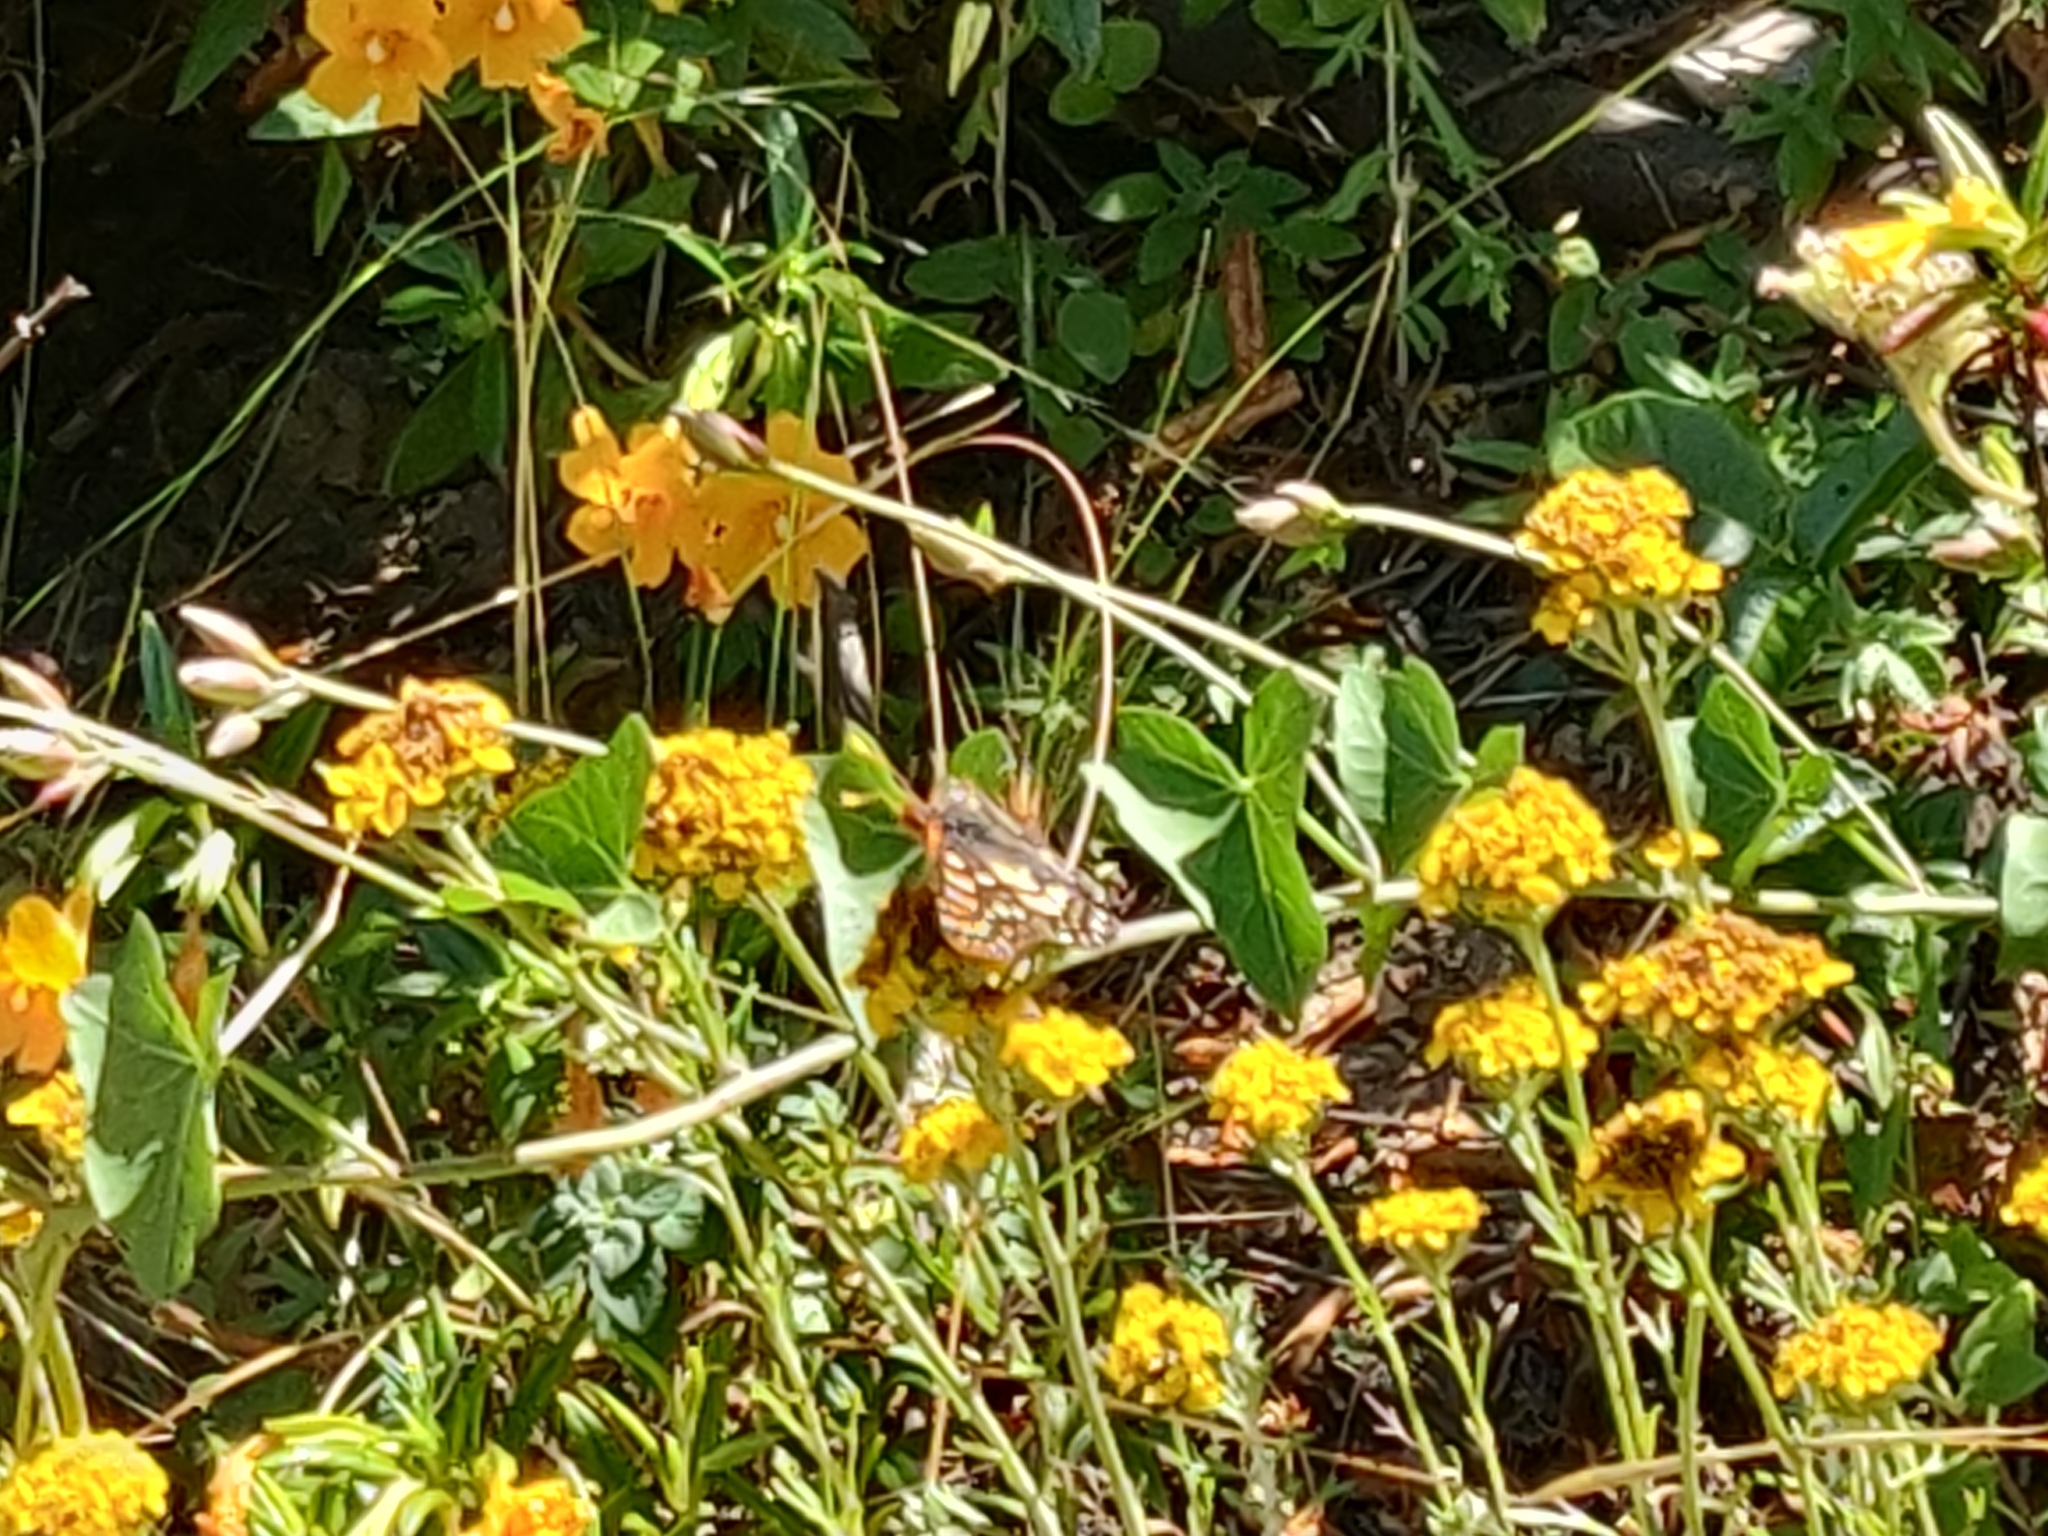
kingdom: Animalia
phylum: Arthropoda
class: Insecta
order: Lepidoptera
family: Nymphalidae
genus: Occidryas
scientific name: Occidryas chalcedona
